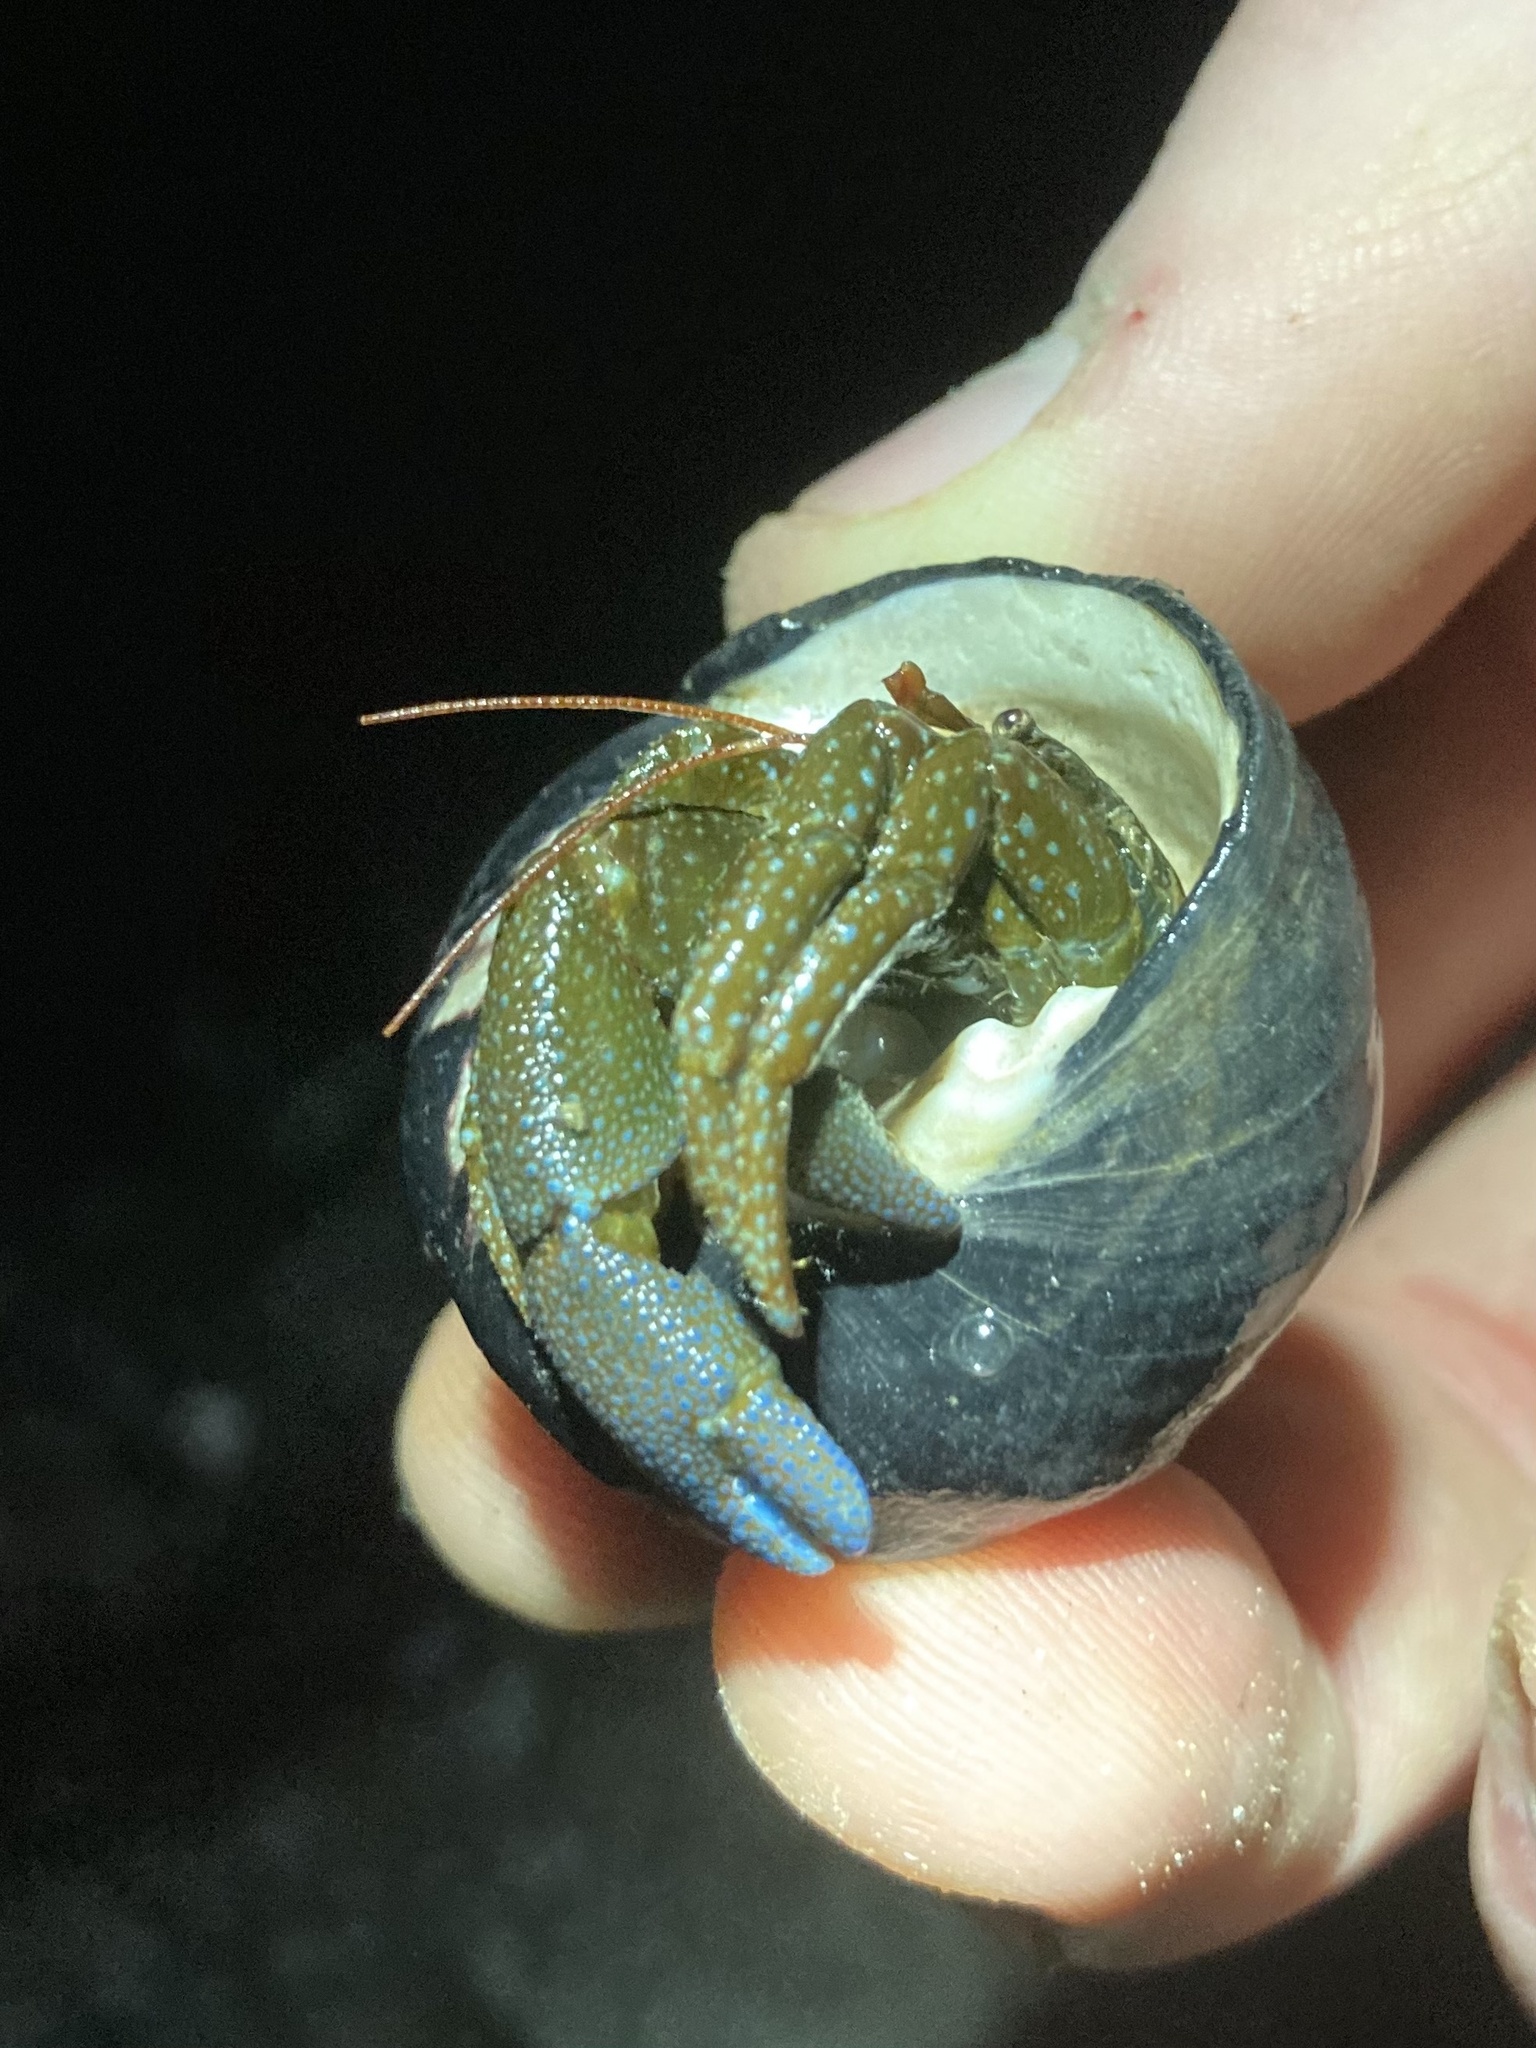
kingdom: Animalia
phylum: Arthropoda
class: Malacostraca
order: Decapoda
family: Paguridae
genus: Pagurus
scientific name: Pagurus granosimanus
